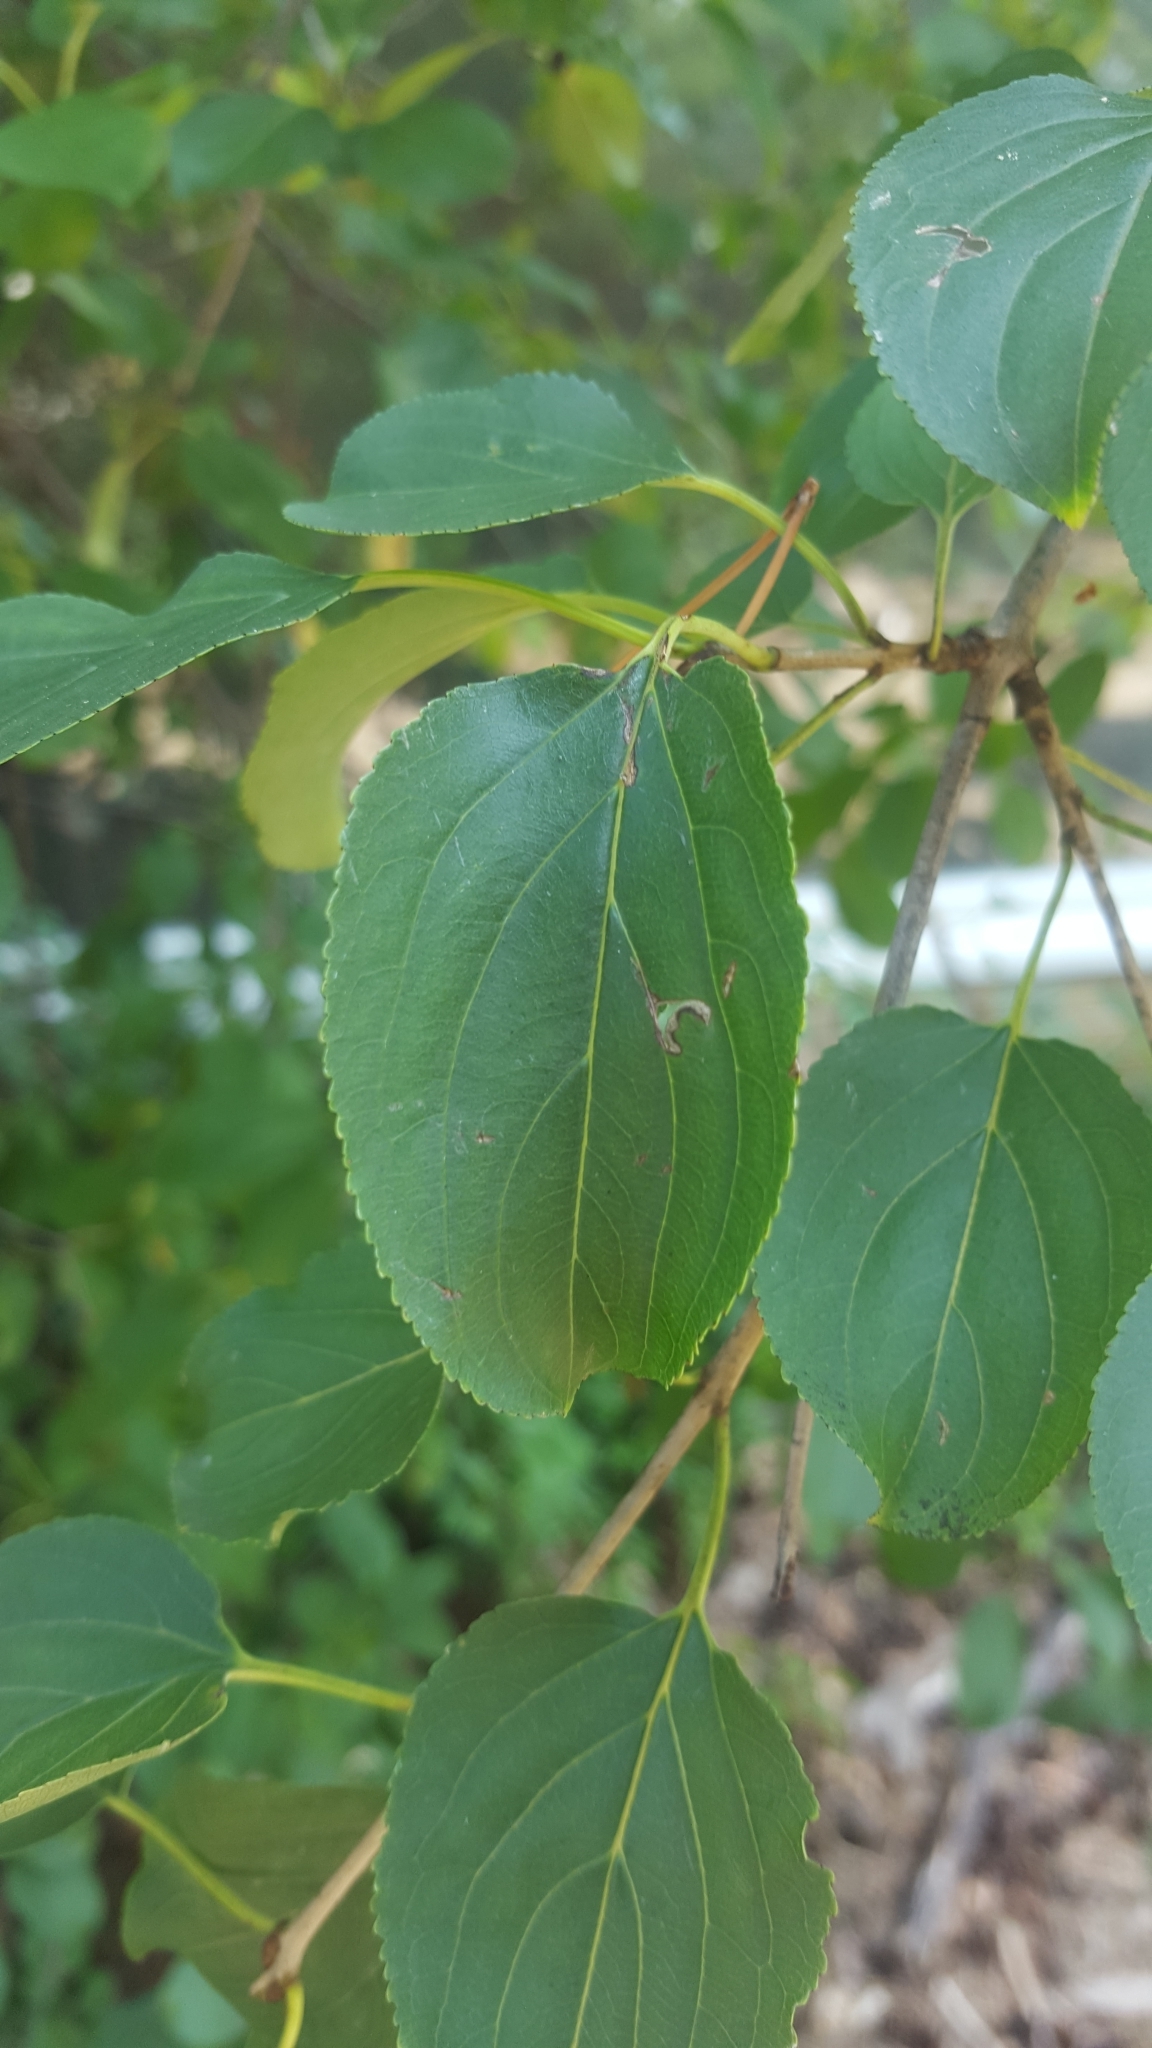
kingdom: Plantae
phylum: Tracheophyta
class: Magnoliopsida
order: Rosales
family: Rhamnaceae
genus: Rhamnus
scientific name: Rhamnus cathartica
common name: Common buckthorn
